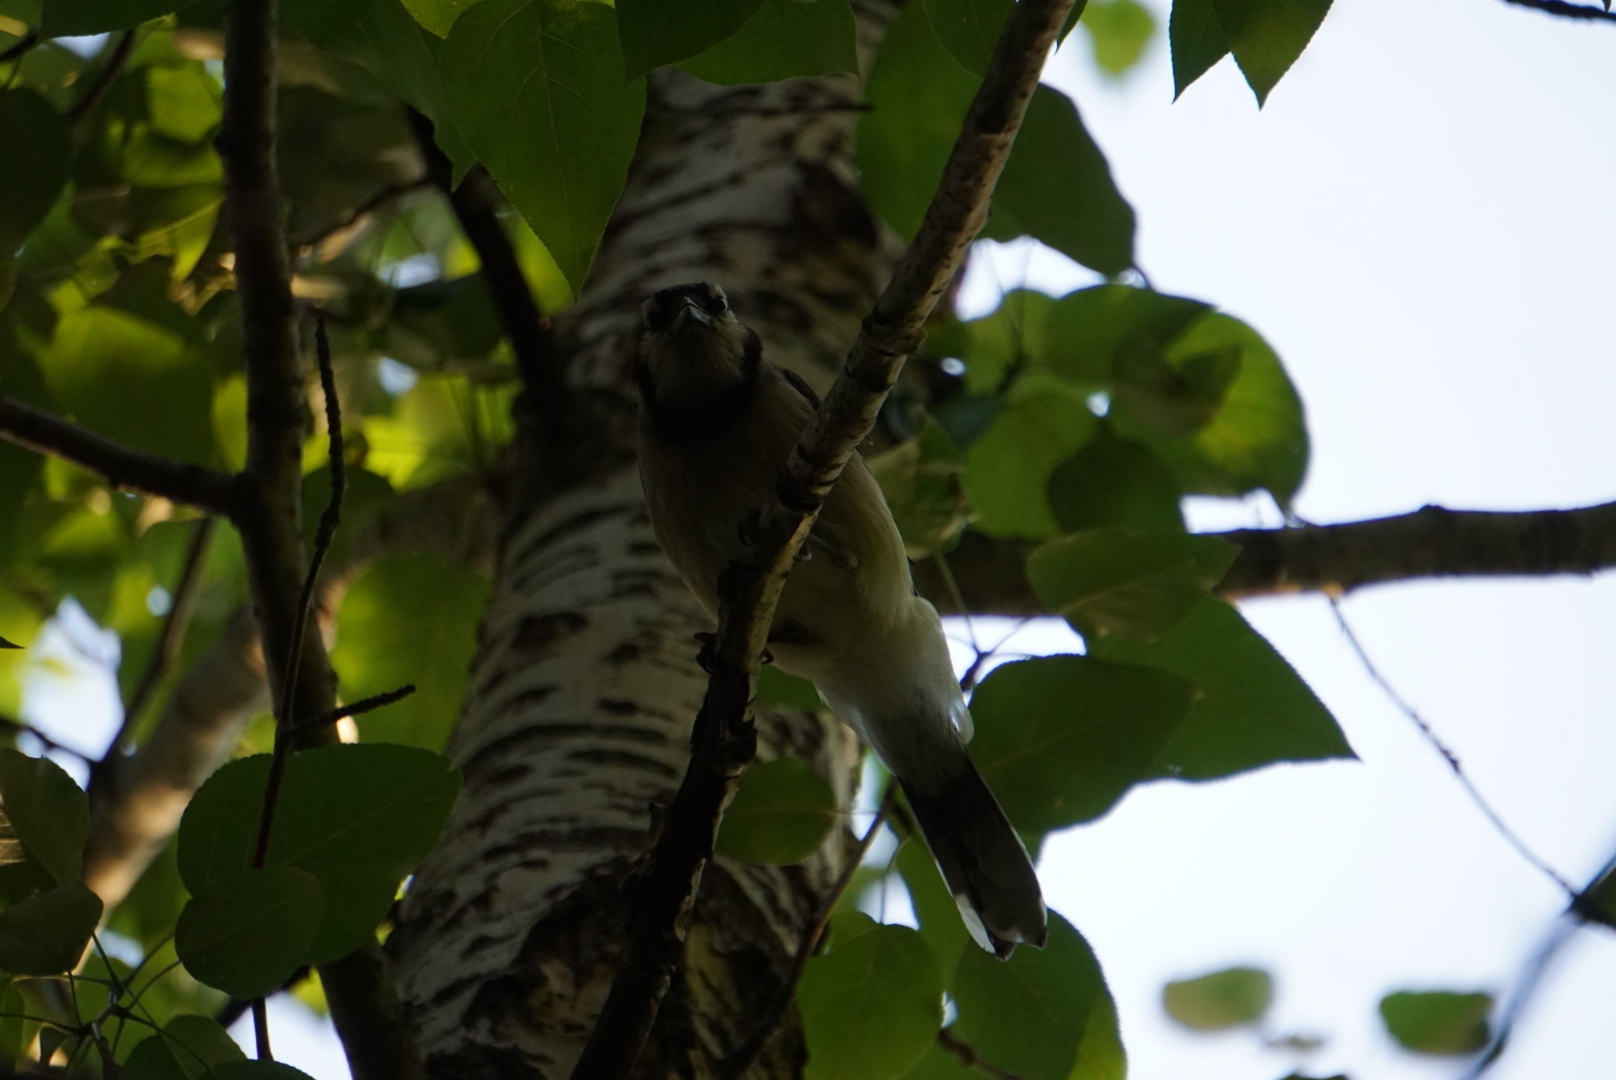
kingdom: Animalia
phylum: Chordata
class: Aves
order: Passeriformes
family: Corvidae
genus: Cyanocitta
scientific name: Cyanocitta cristata
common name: Blue jay
